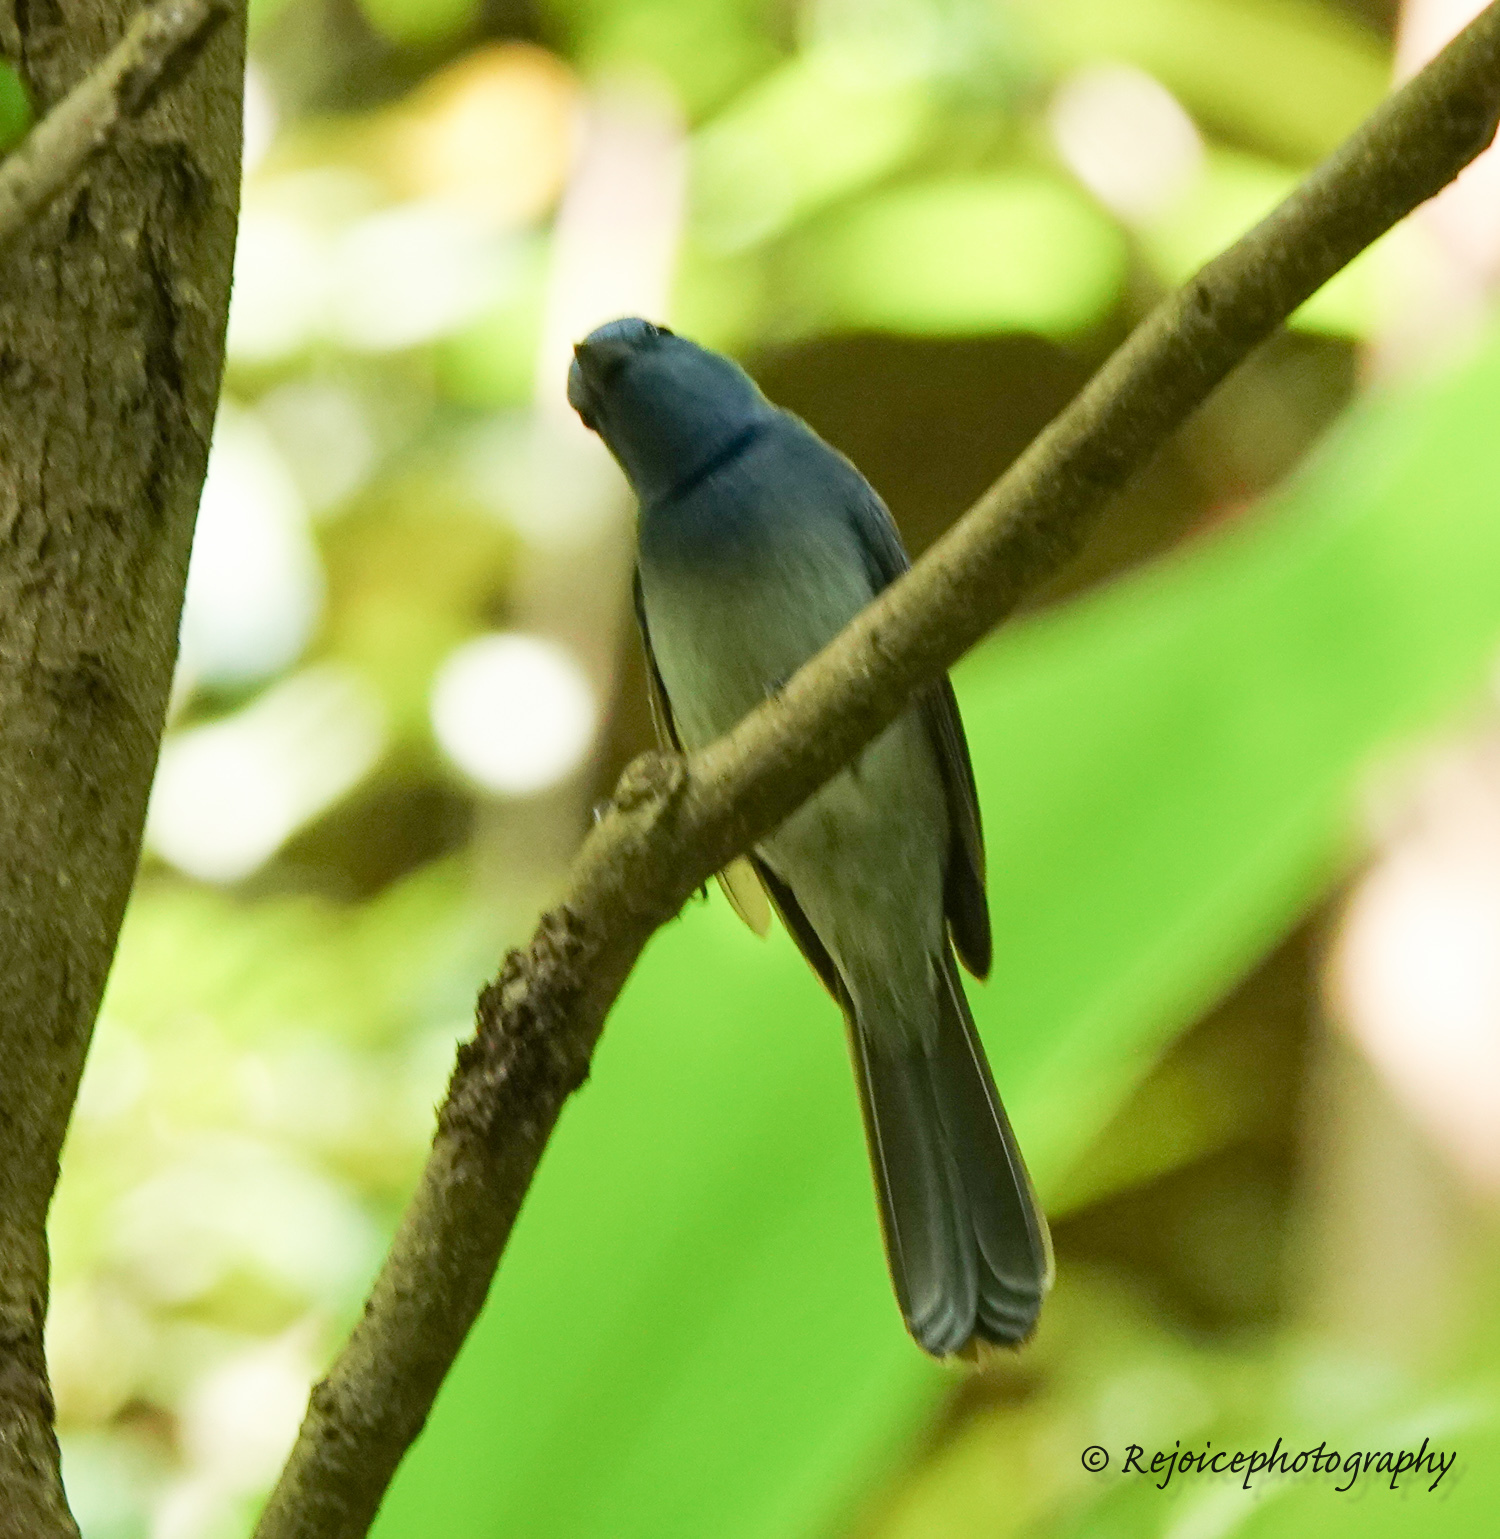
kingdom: Animalia
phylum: Chordata
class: Aves
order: Passeriformes
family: Monarchidae
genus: Hypothymis
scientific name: Hypothymis azurea
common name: Black-naped monarch
